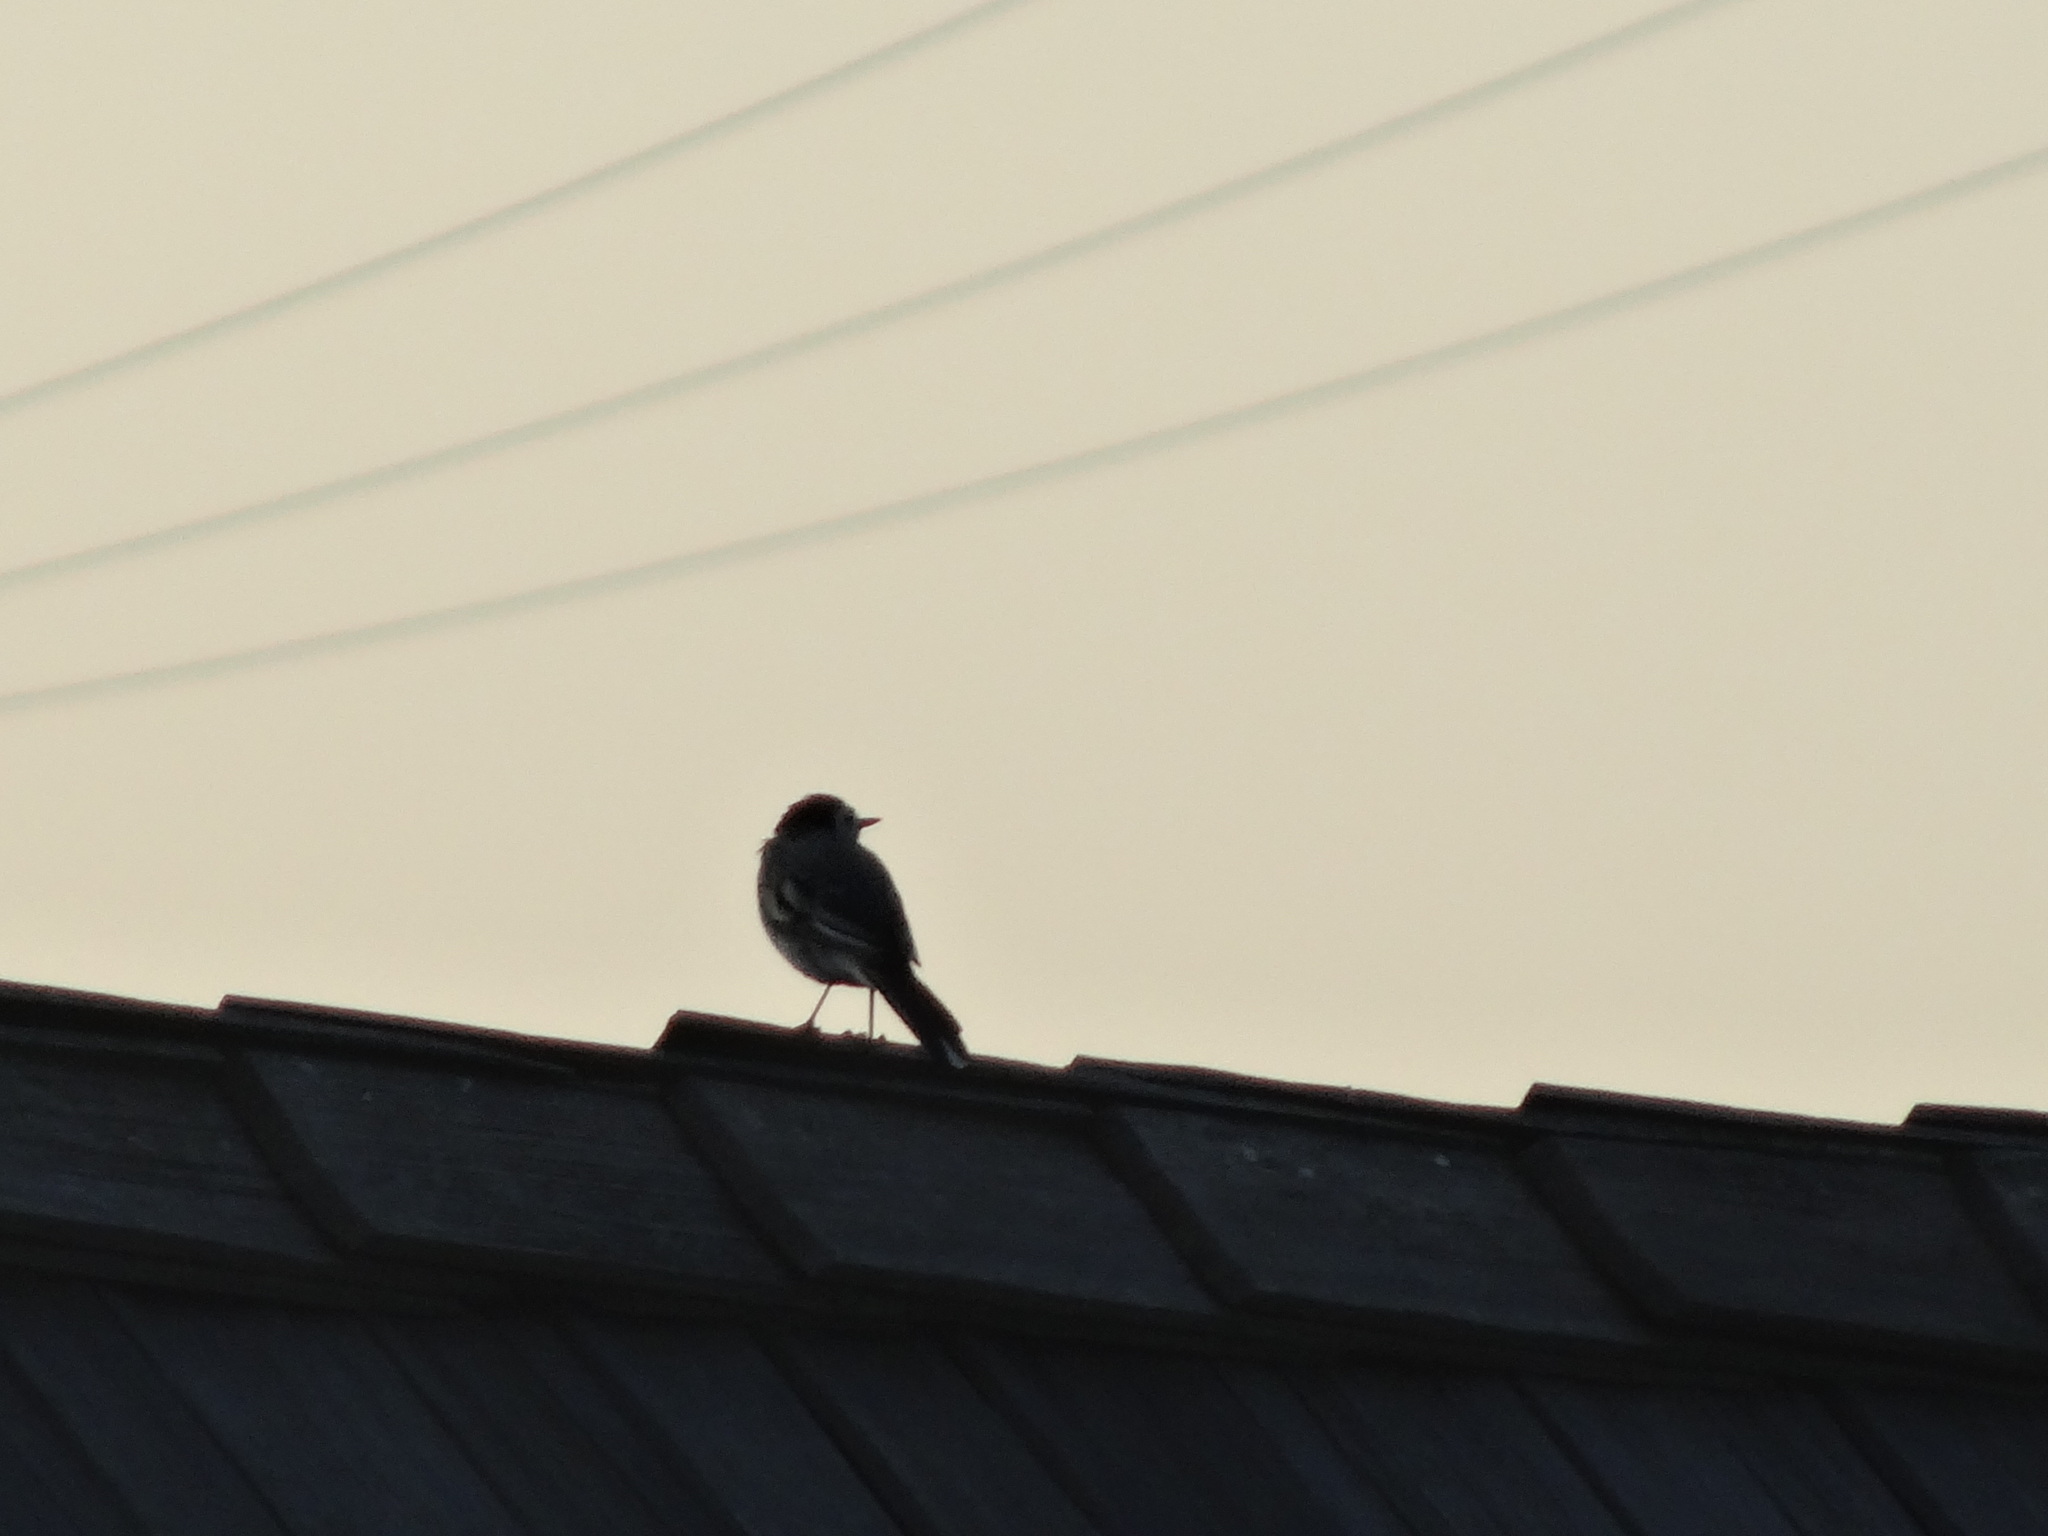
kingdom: Animalia
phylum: Chordata
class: Aves
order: Passeriformes
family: Motacillidae
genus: Motacilla
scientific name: Motacilla alba
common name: White wagtail
